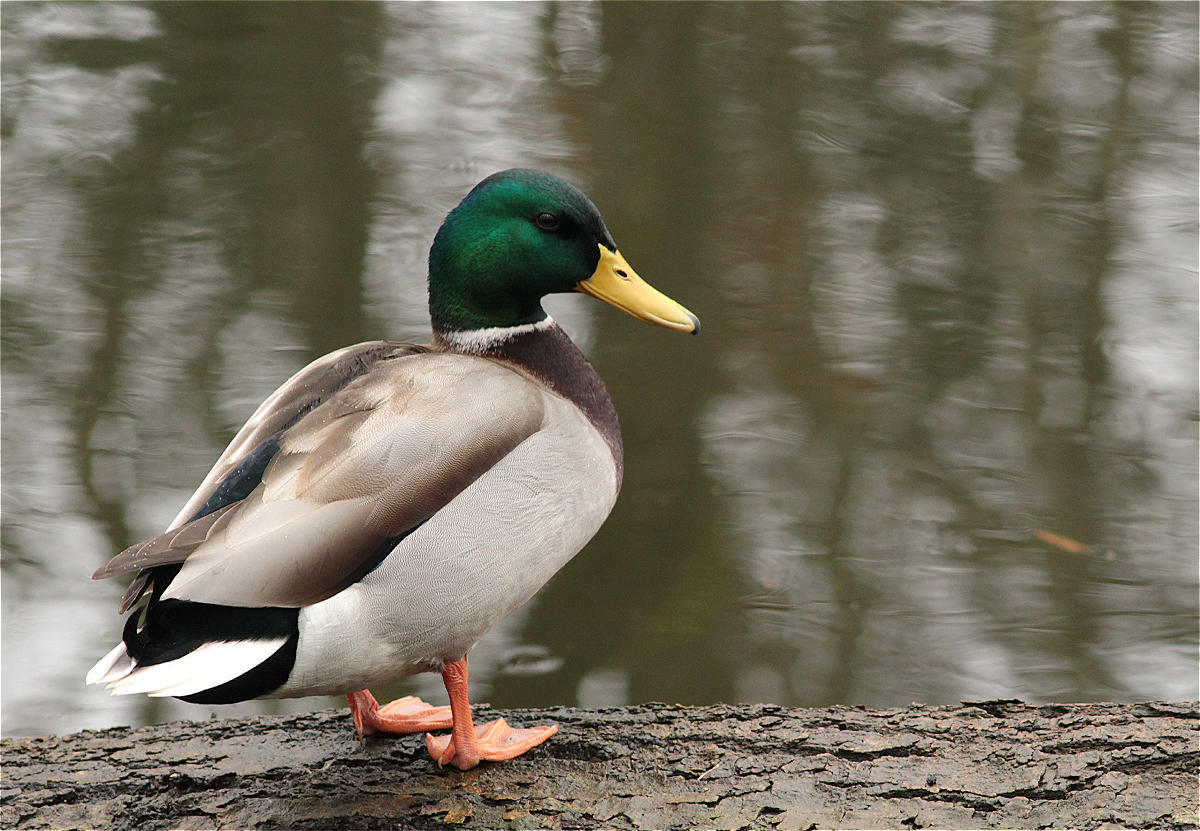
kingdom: Animalia
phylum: Chordata
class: Aves
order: Anseriformes
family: Anatidae
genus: Anas
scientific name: Anas platyrhynchos
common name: Mallard
